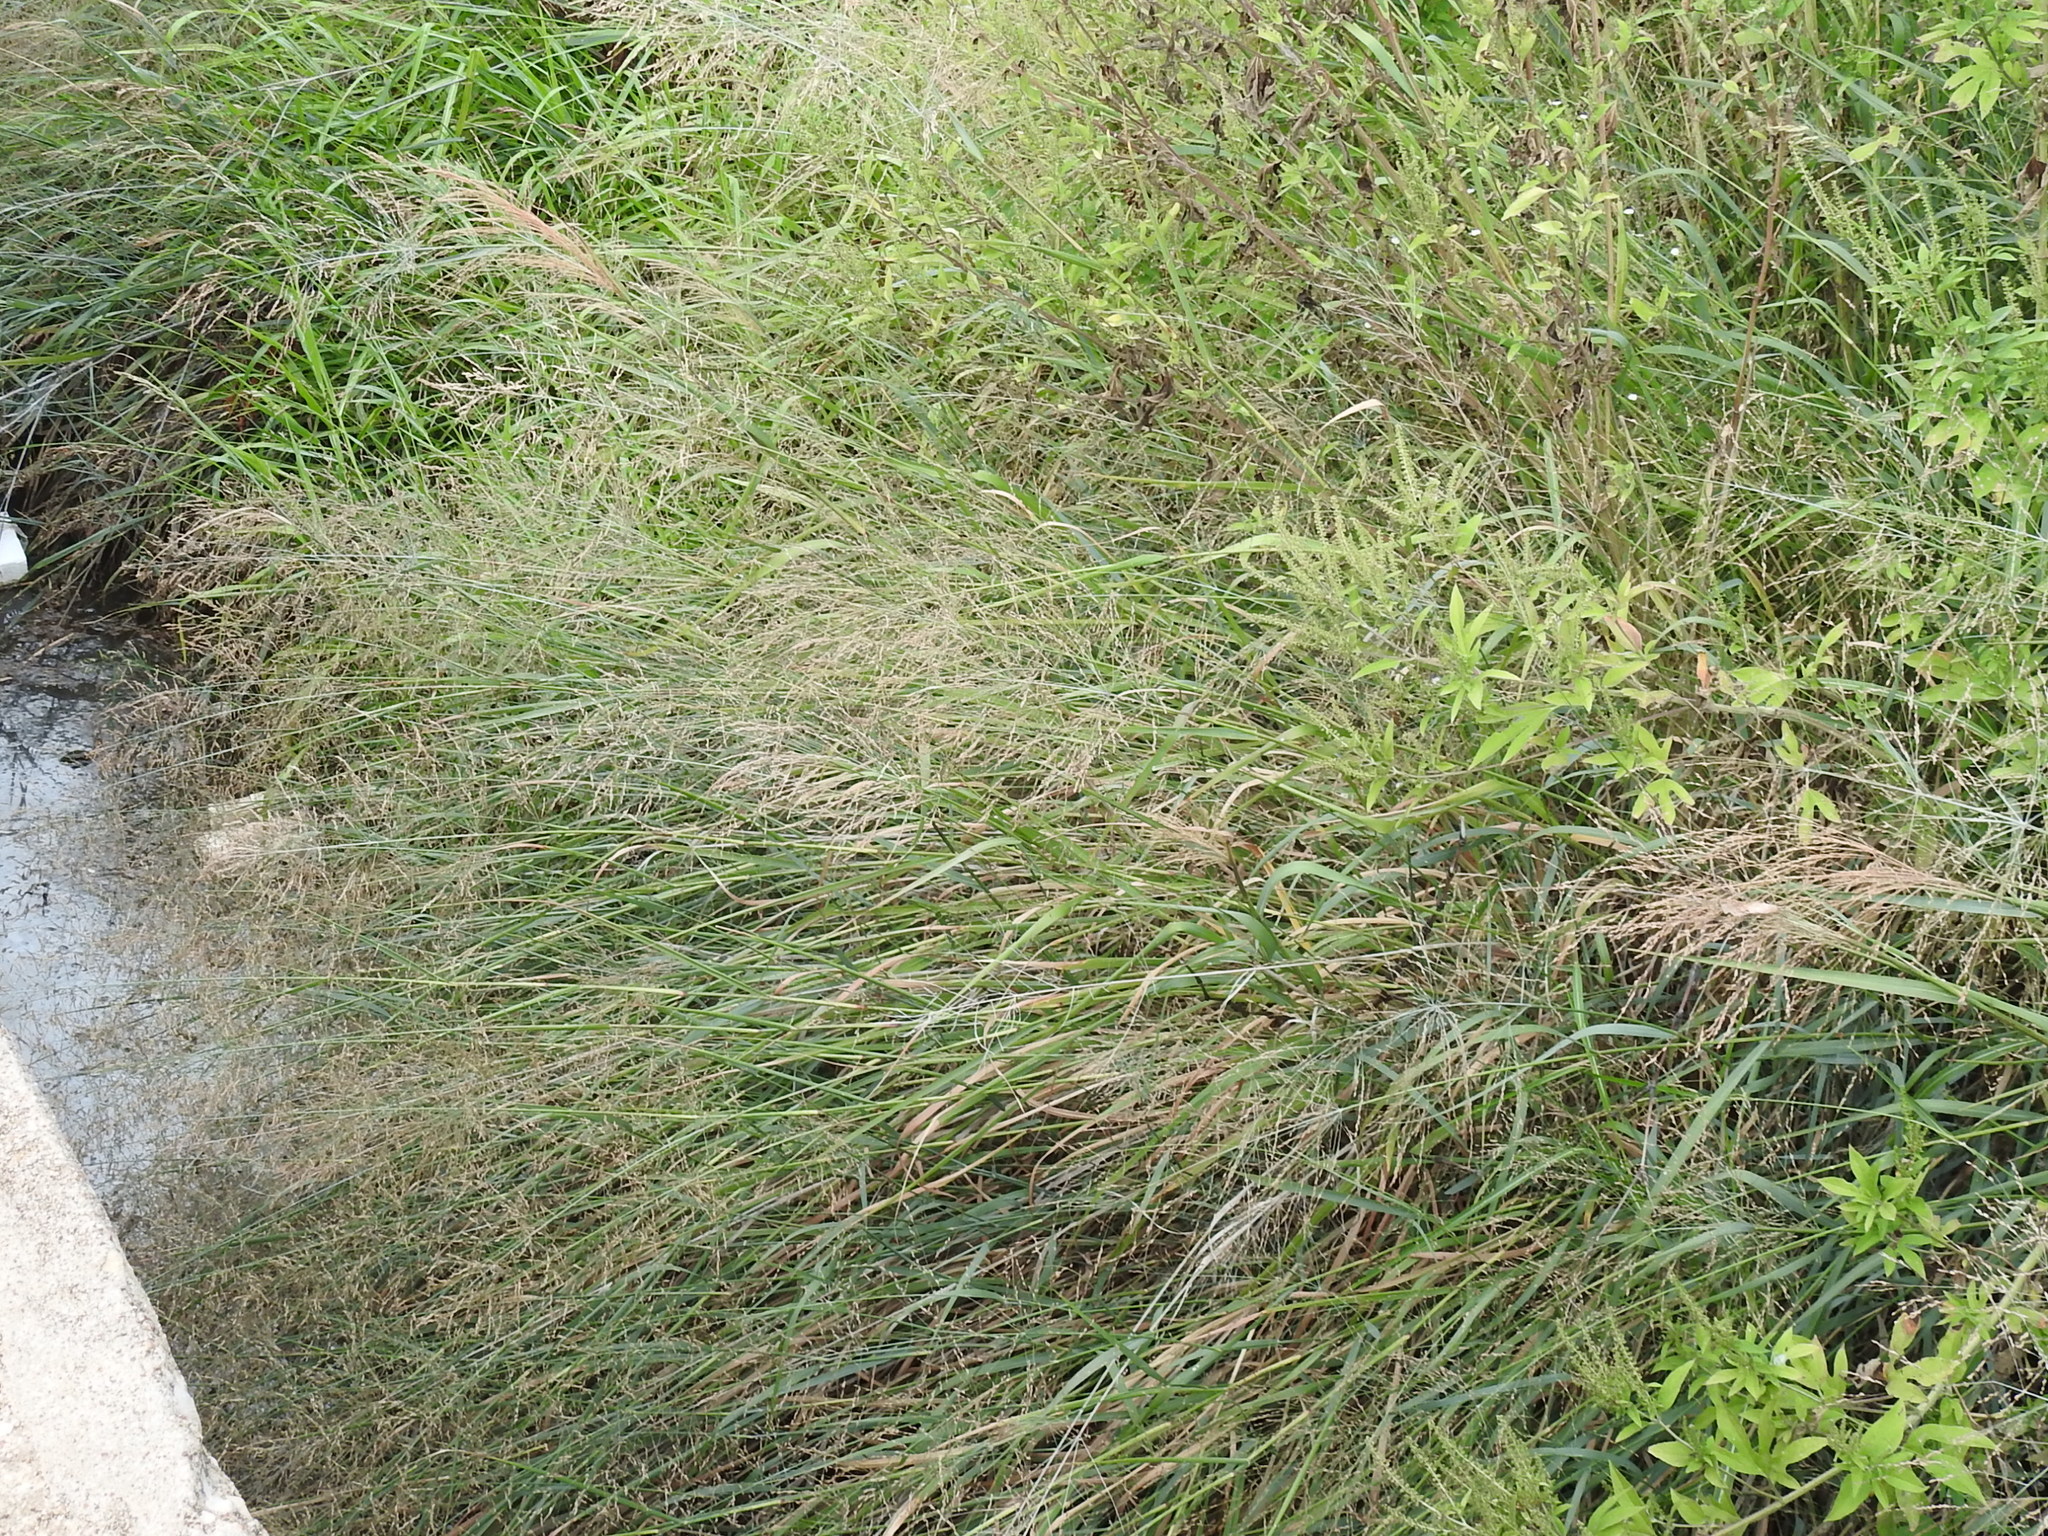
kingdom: Plantae
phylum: Tracheophyta
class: Liliopsida
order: Poales
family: Poaceae
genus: Panicum
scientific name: Panicum virgatum
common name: Switchgrass
